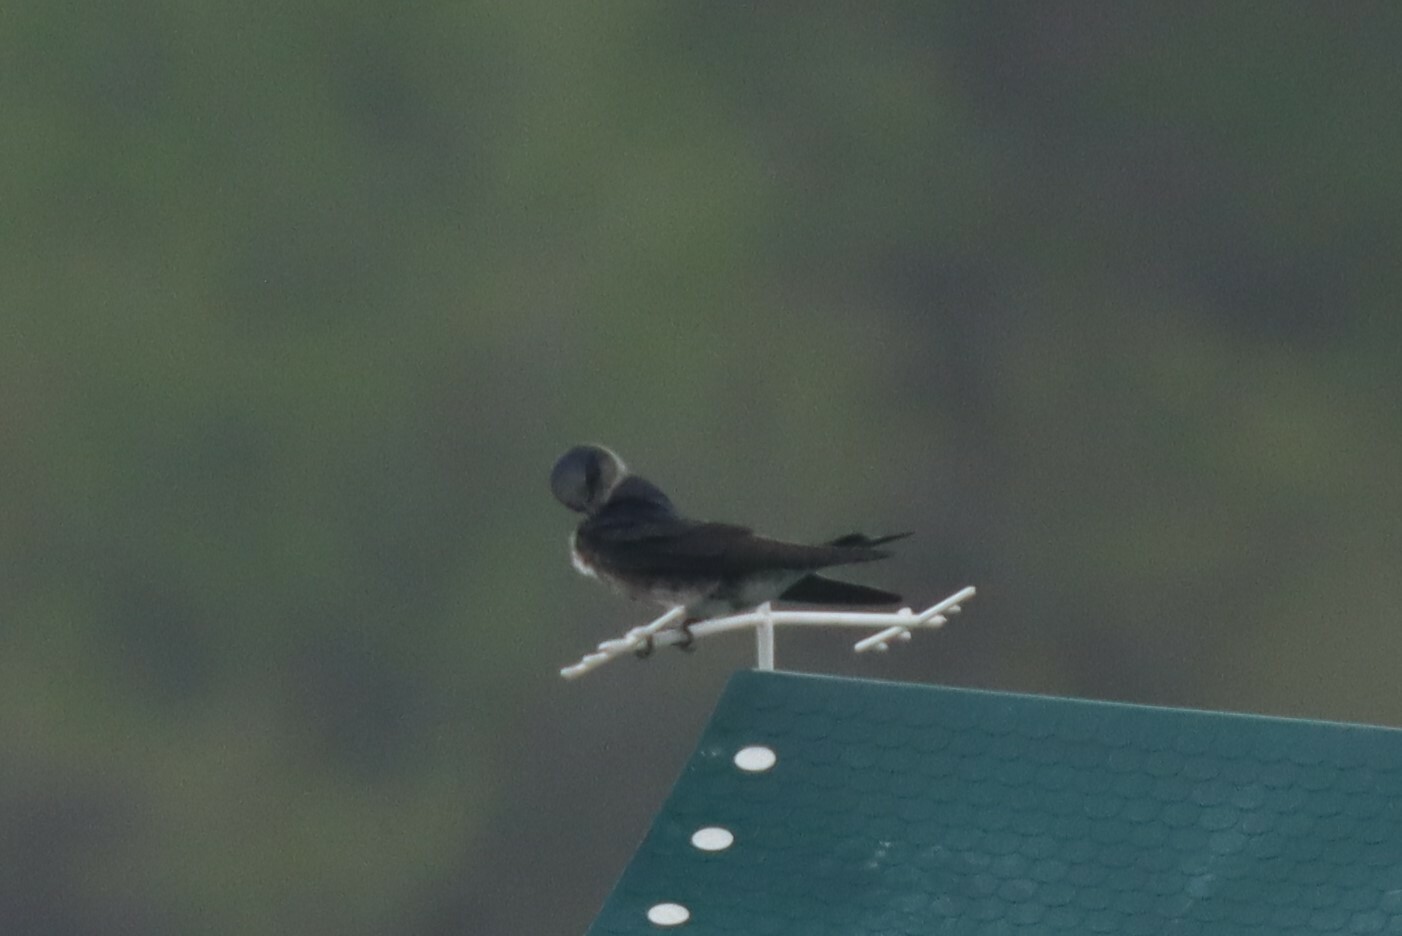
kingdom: Animalia
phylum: Chordata
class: Aves
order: Passeriformes
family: Hirundinidae
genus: Progne
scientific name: Progne subis
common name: Purple martin
